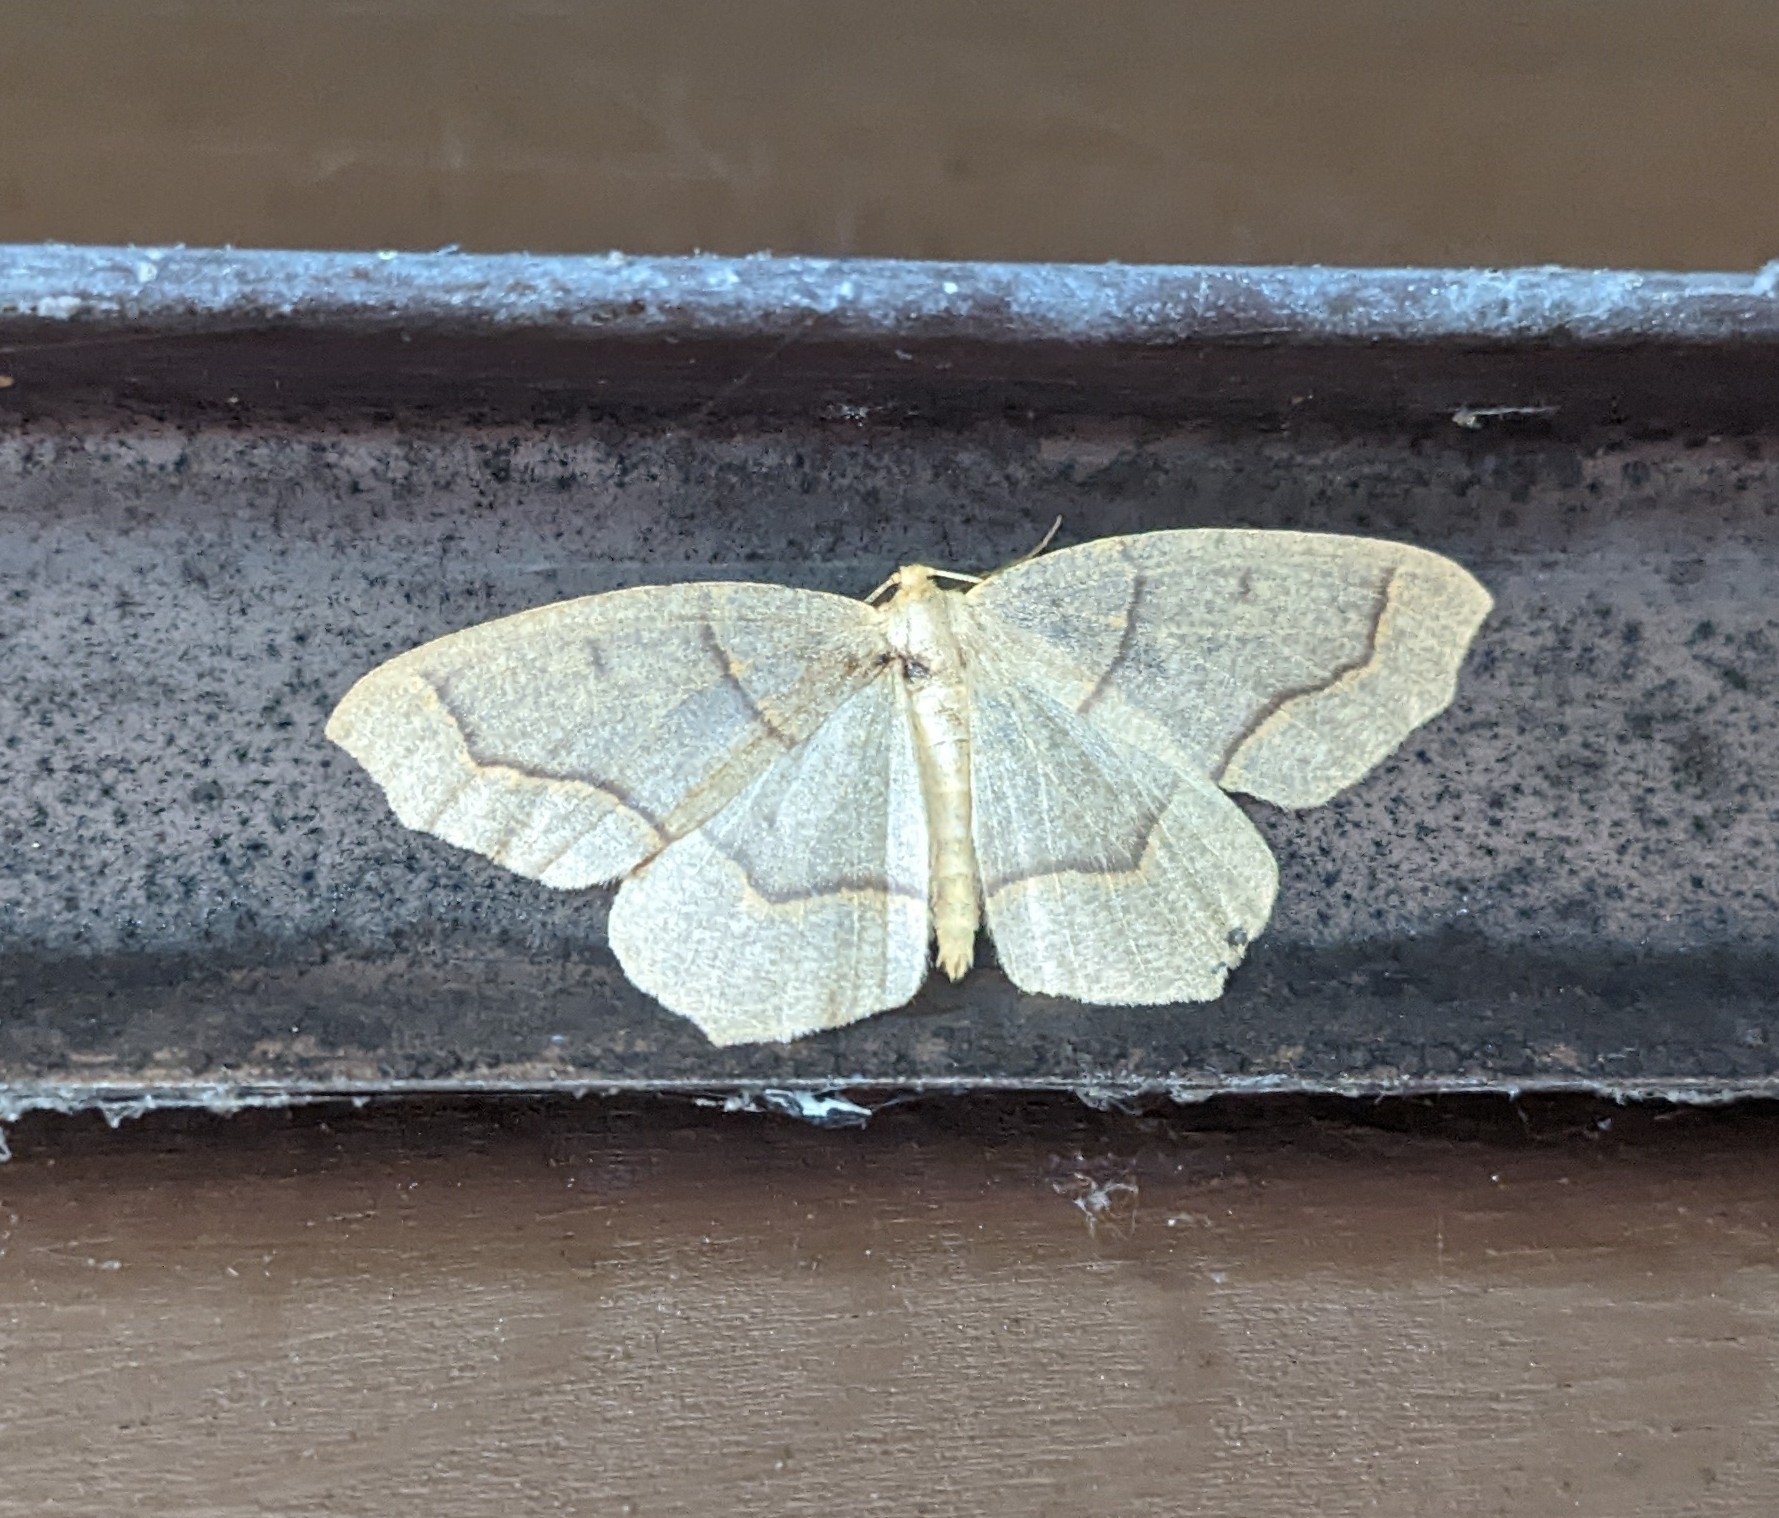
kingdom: Animalia
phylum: Arthropoda
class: Insecta
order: Lepidoptera
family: Geometridae
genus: Lambdina
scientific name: Lambdina fiscellaria
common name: Hemlock looper
